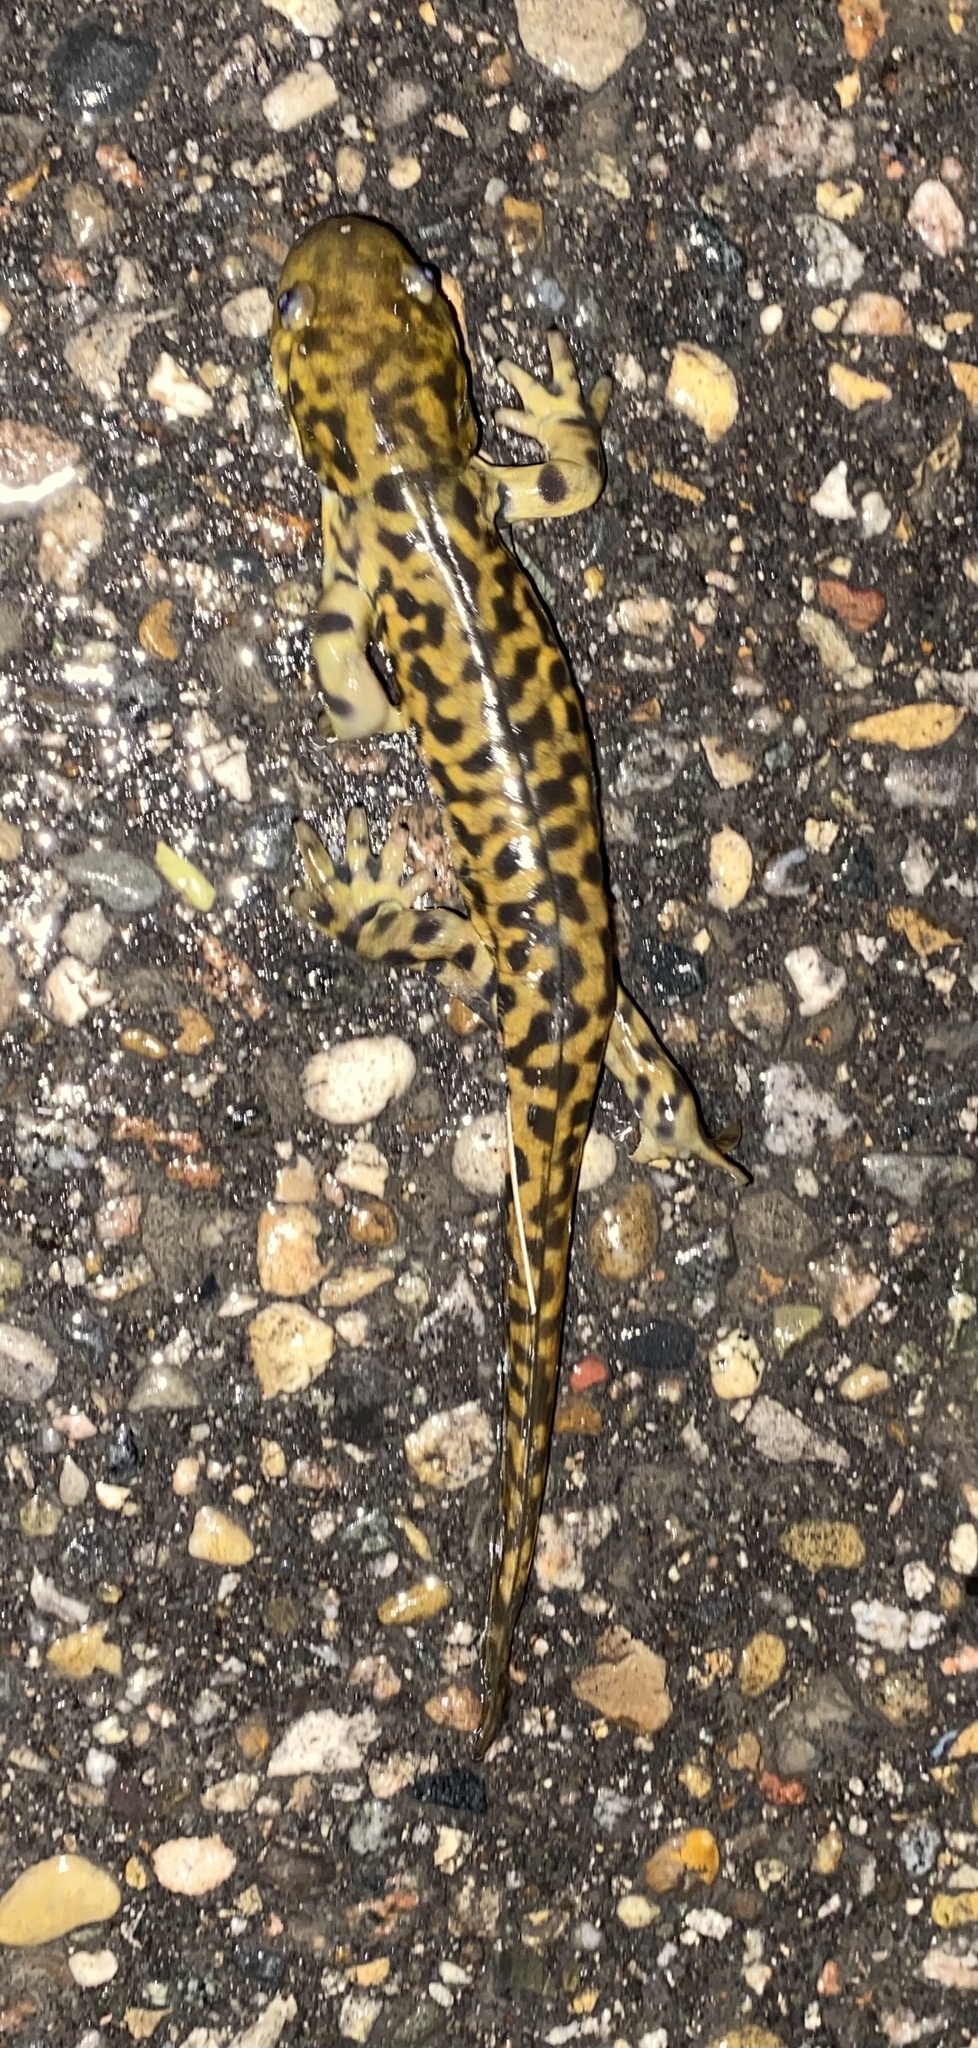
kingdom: Animalia
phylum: Chordata
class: Amphibia
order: Caudata
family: Ambystomatidae
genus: Ambystoma
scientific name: Ambystoma mavortium
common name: Western tiger salamander
